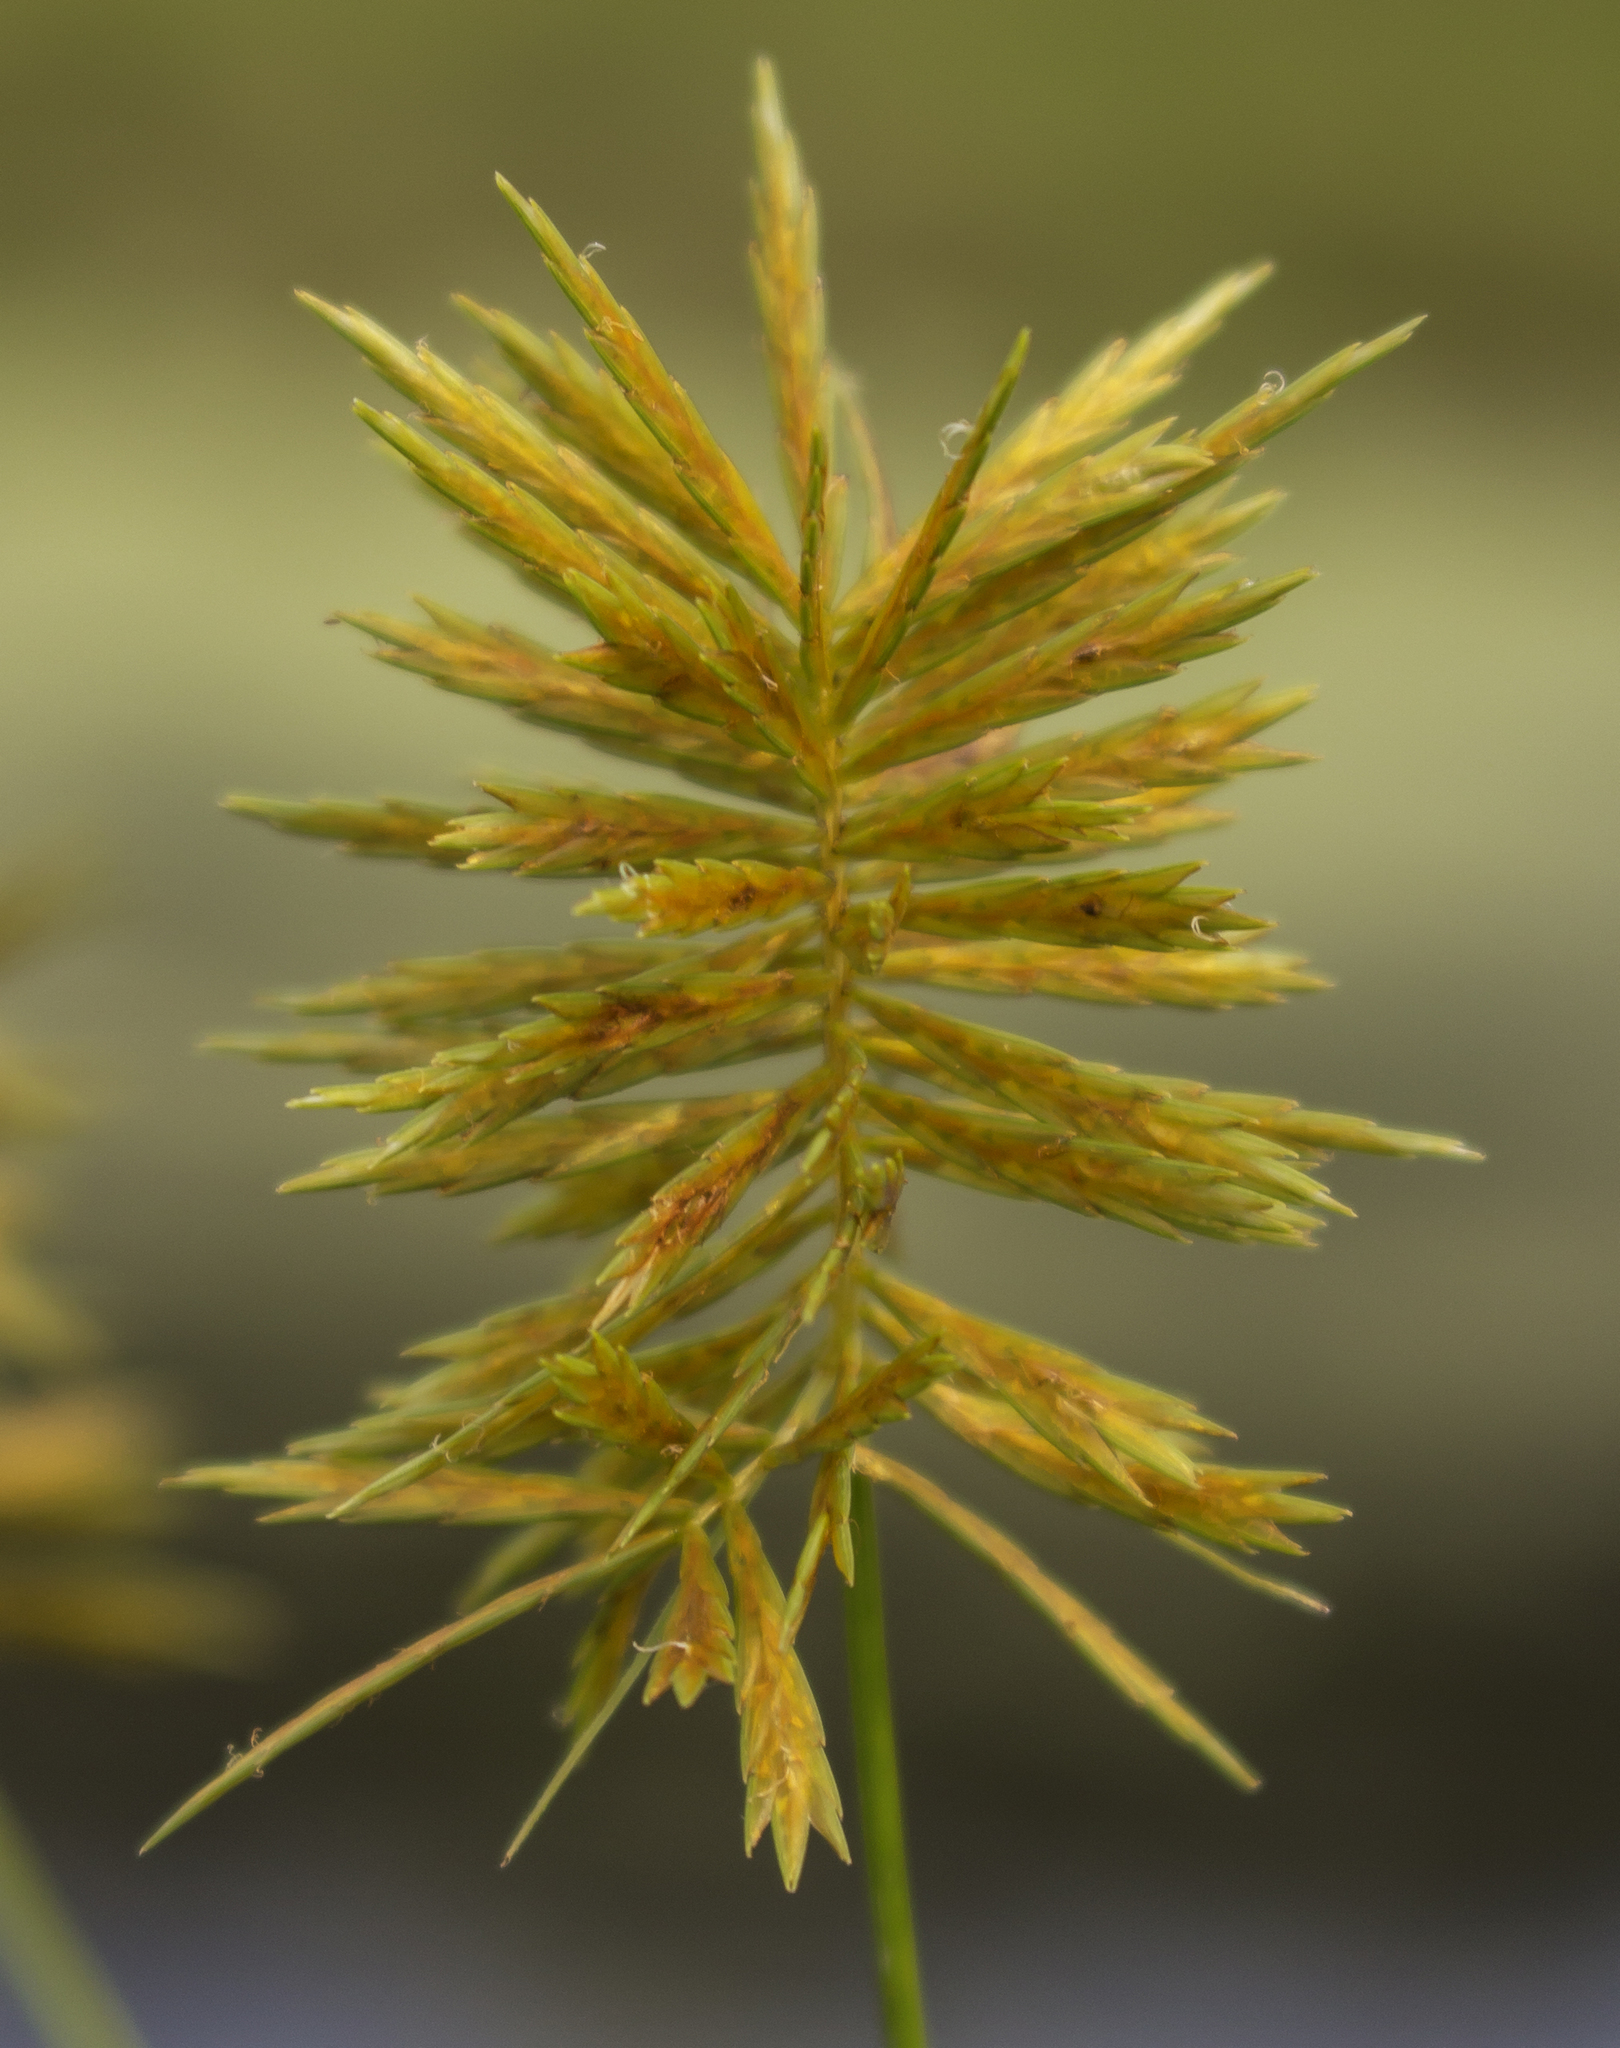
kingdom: Plantae
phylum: Tracheophyta
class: Liliopsida
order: Poales
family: Cyperaceae
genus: Cyperus
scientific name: Cyperus strigosus
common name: False nutsedge
